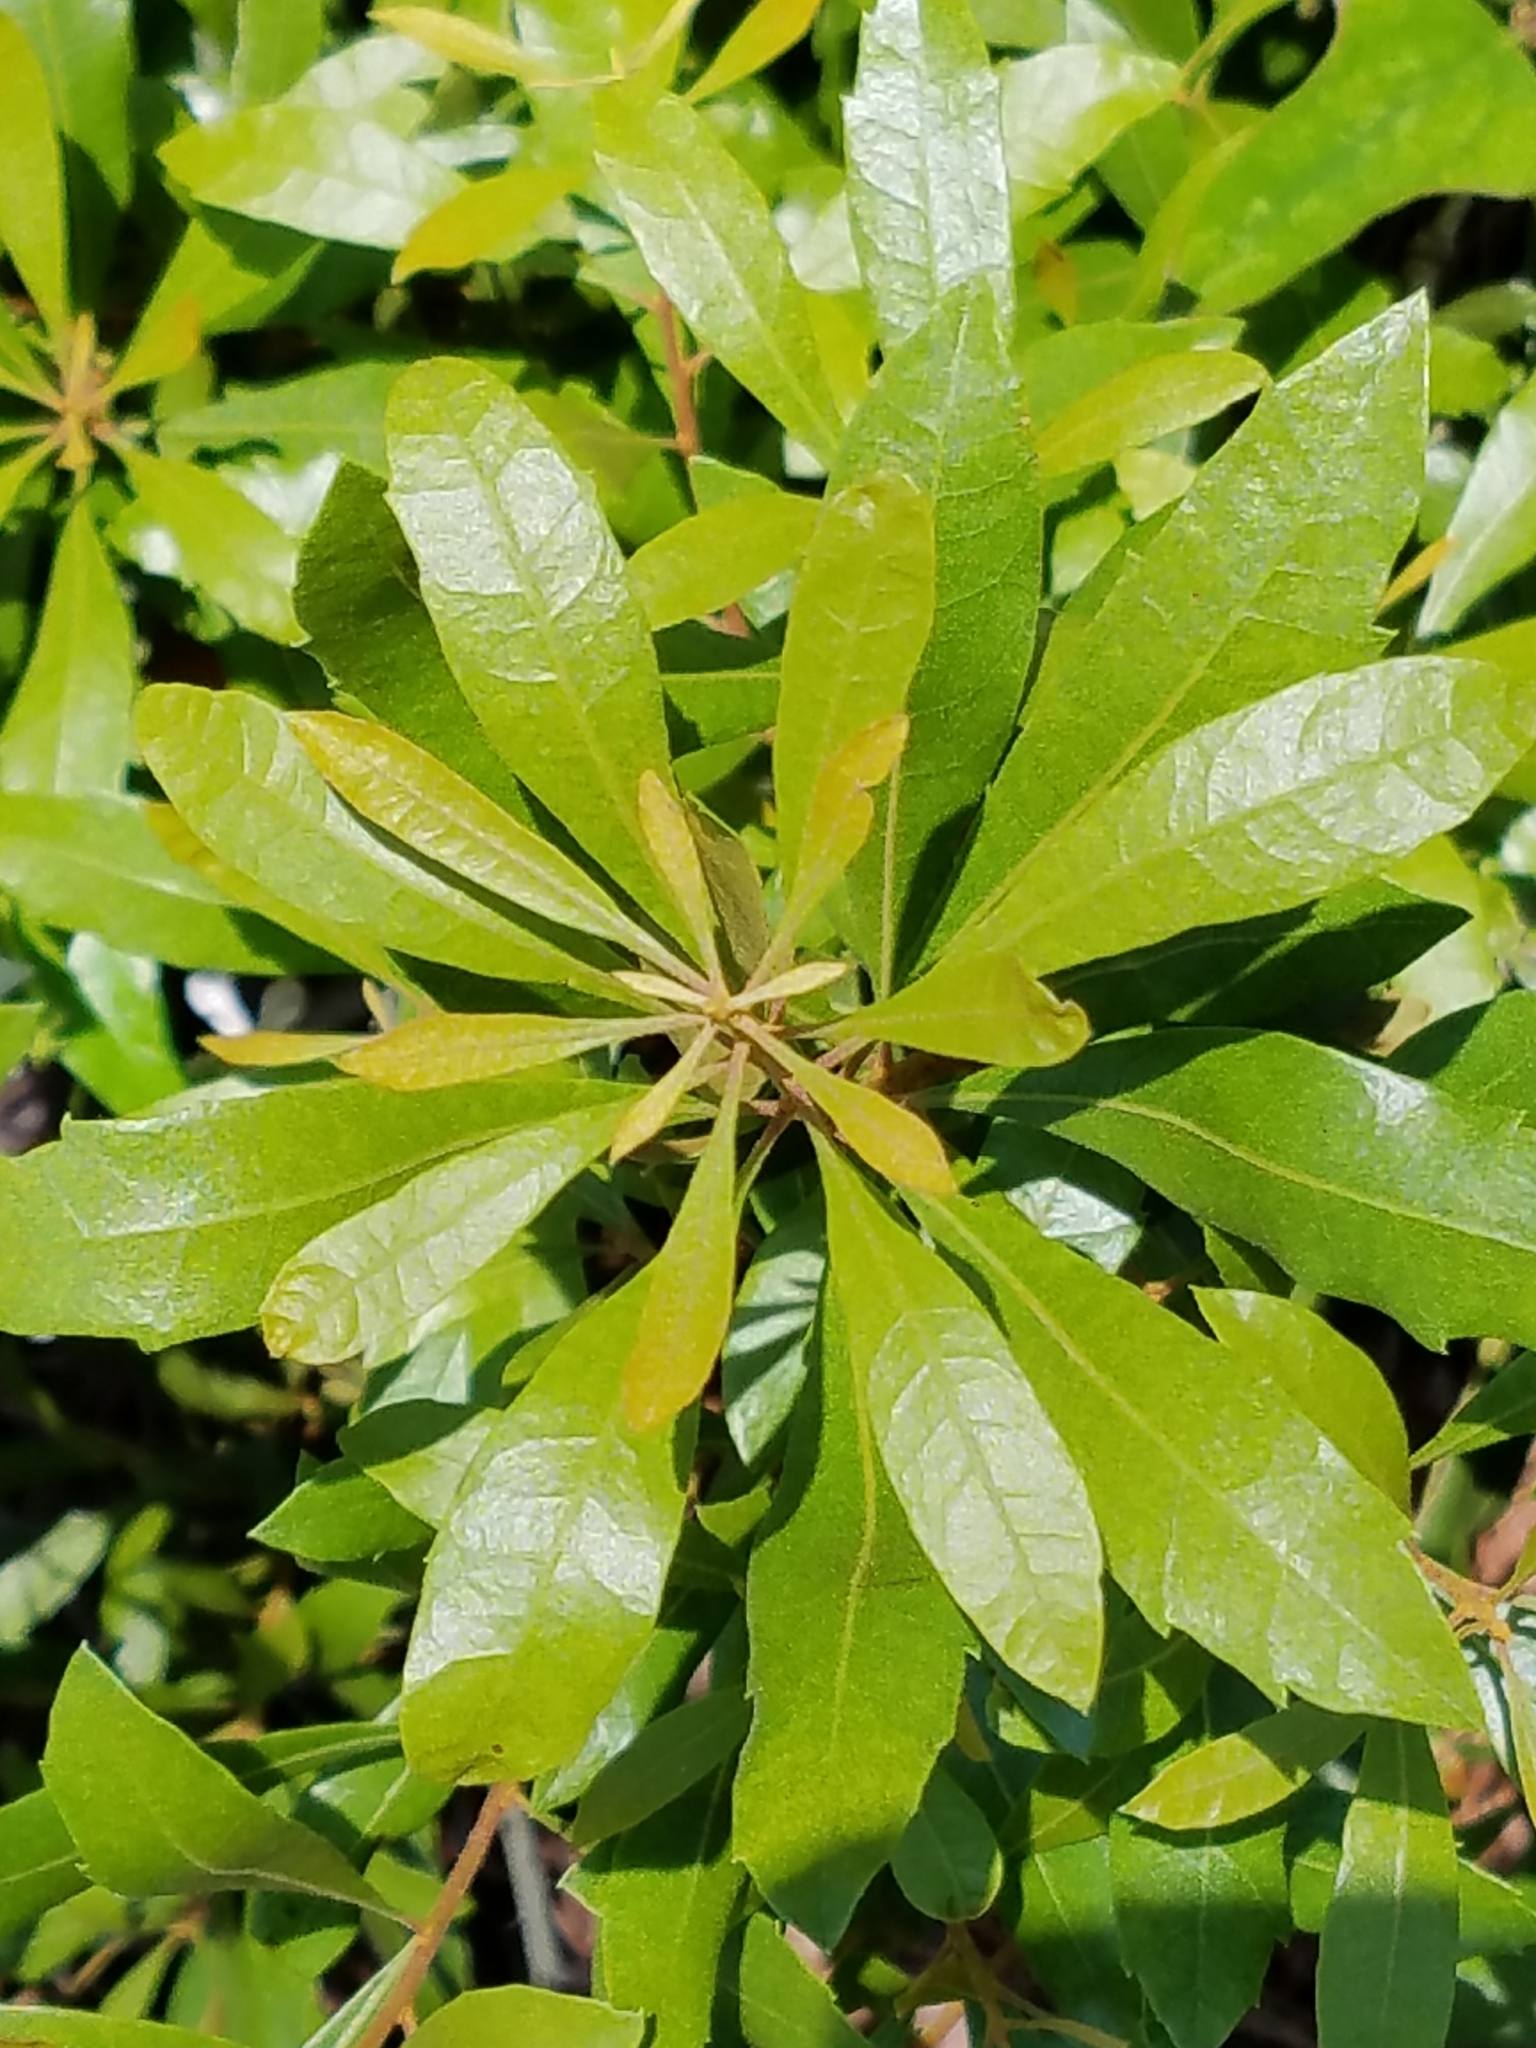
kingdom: Plantae
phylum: Tracheophyta
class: Magnoliopsida
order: Fagales
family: Myricaceae
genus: Morella
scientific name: Morella cerifera
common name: Wax myrtle
